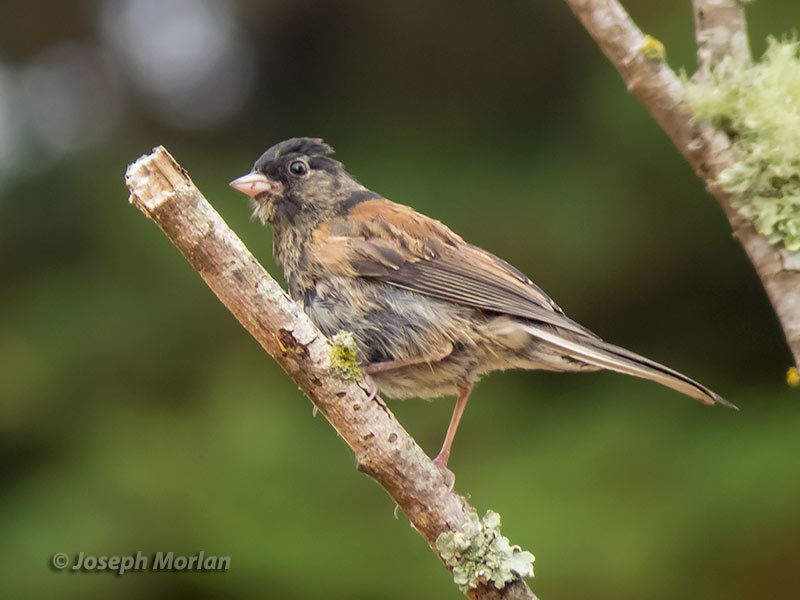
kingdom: Animalia
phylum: Chordata
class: Aves
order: Passeriformes
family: Passerellidae
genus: Junco
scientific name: Junco hyemalis
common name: Dark-eyed junco
